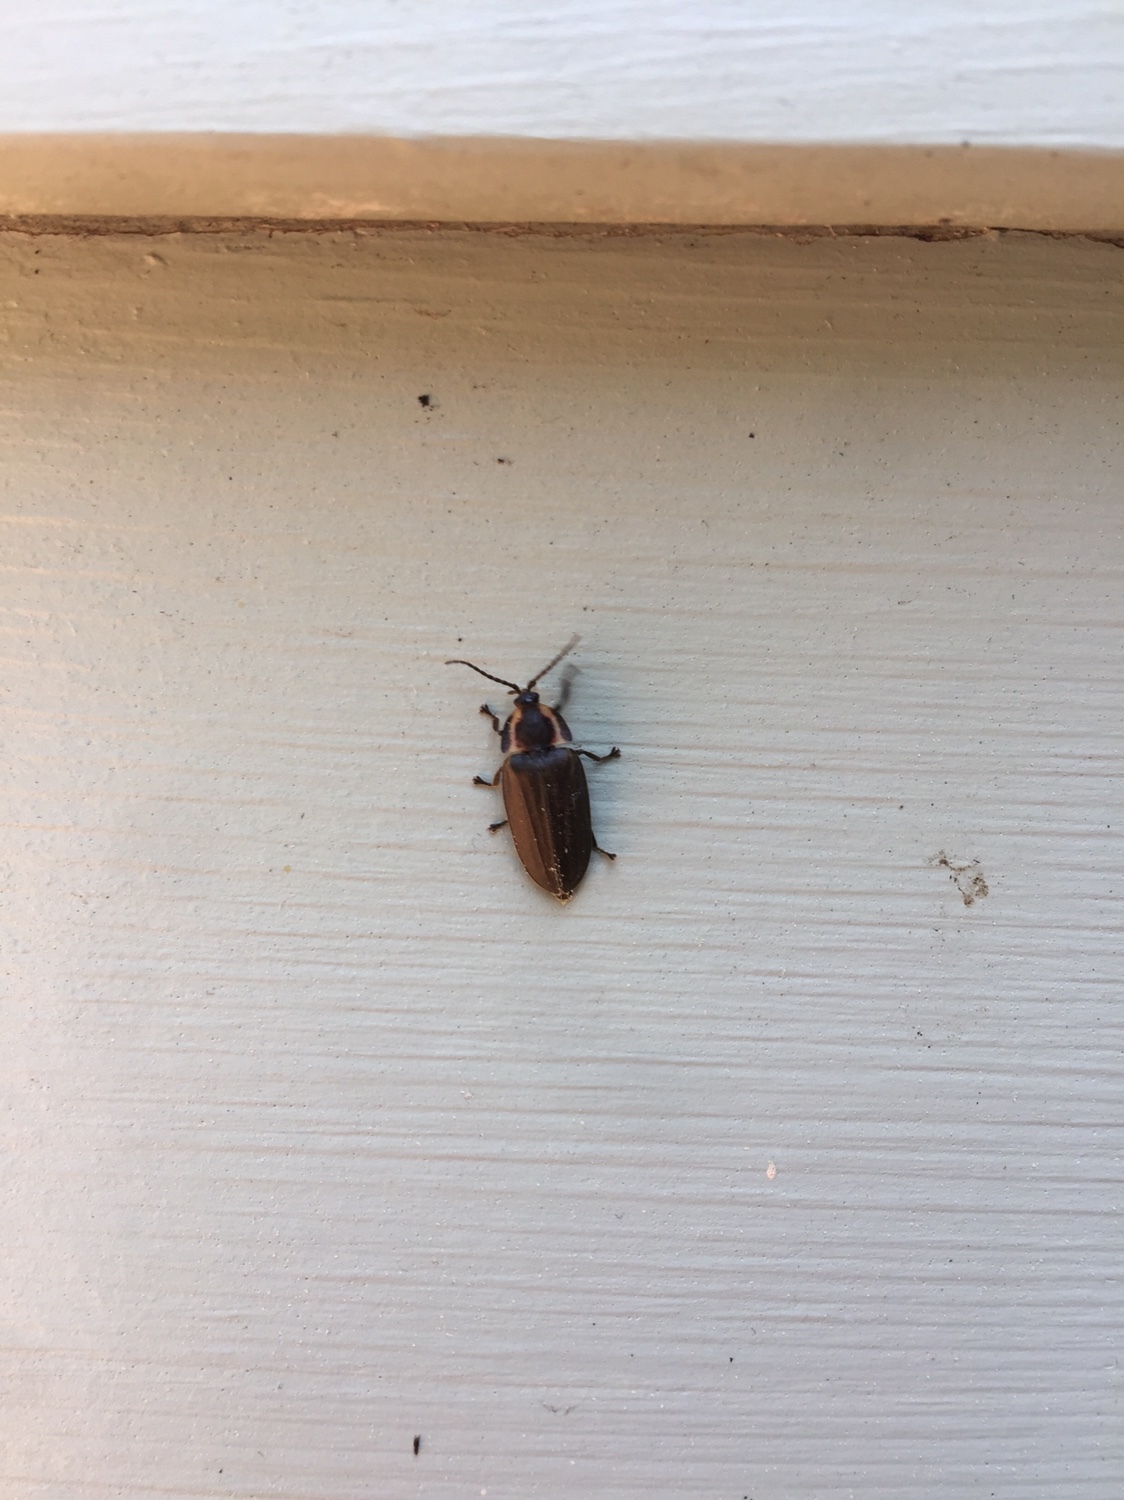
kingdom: Animalia
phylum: Arthropoda
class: Insecta
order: Coleoptera
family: Lampyridae
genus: Photinus
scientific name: Photinus corrusca
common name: Winter firefly
